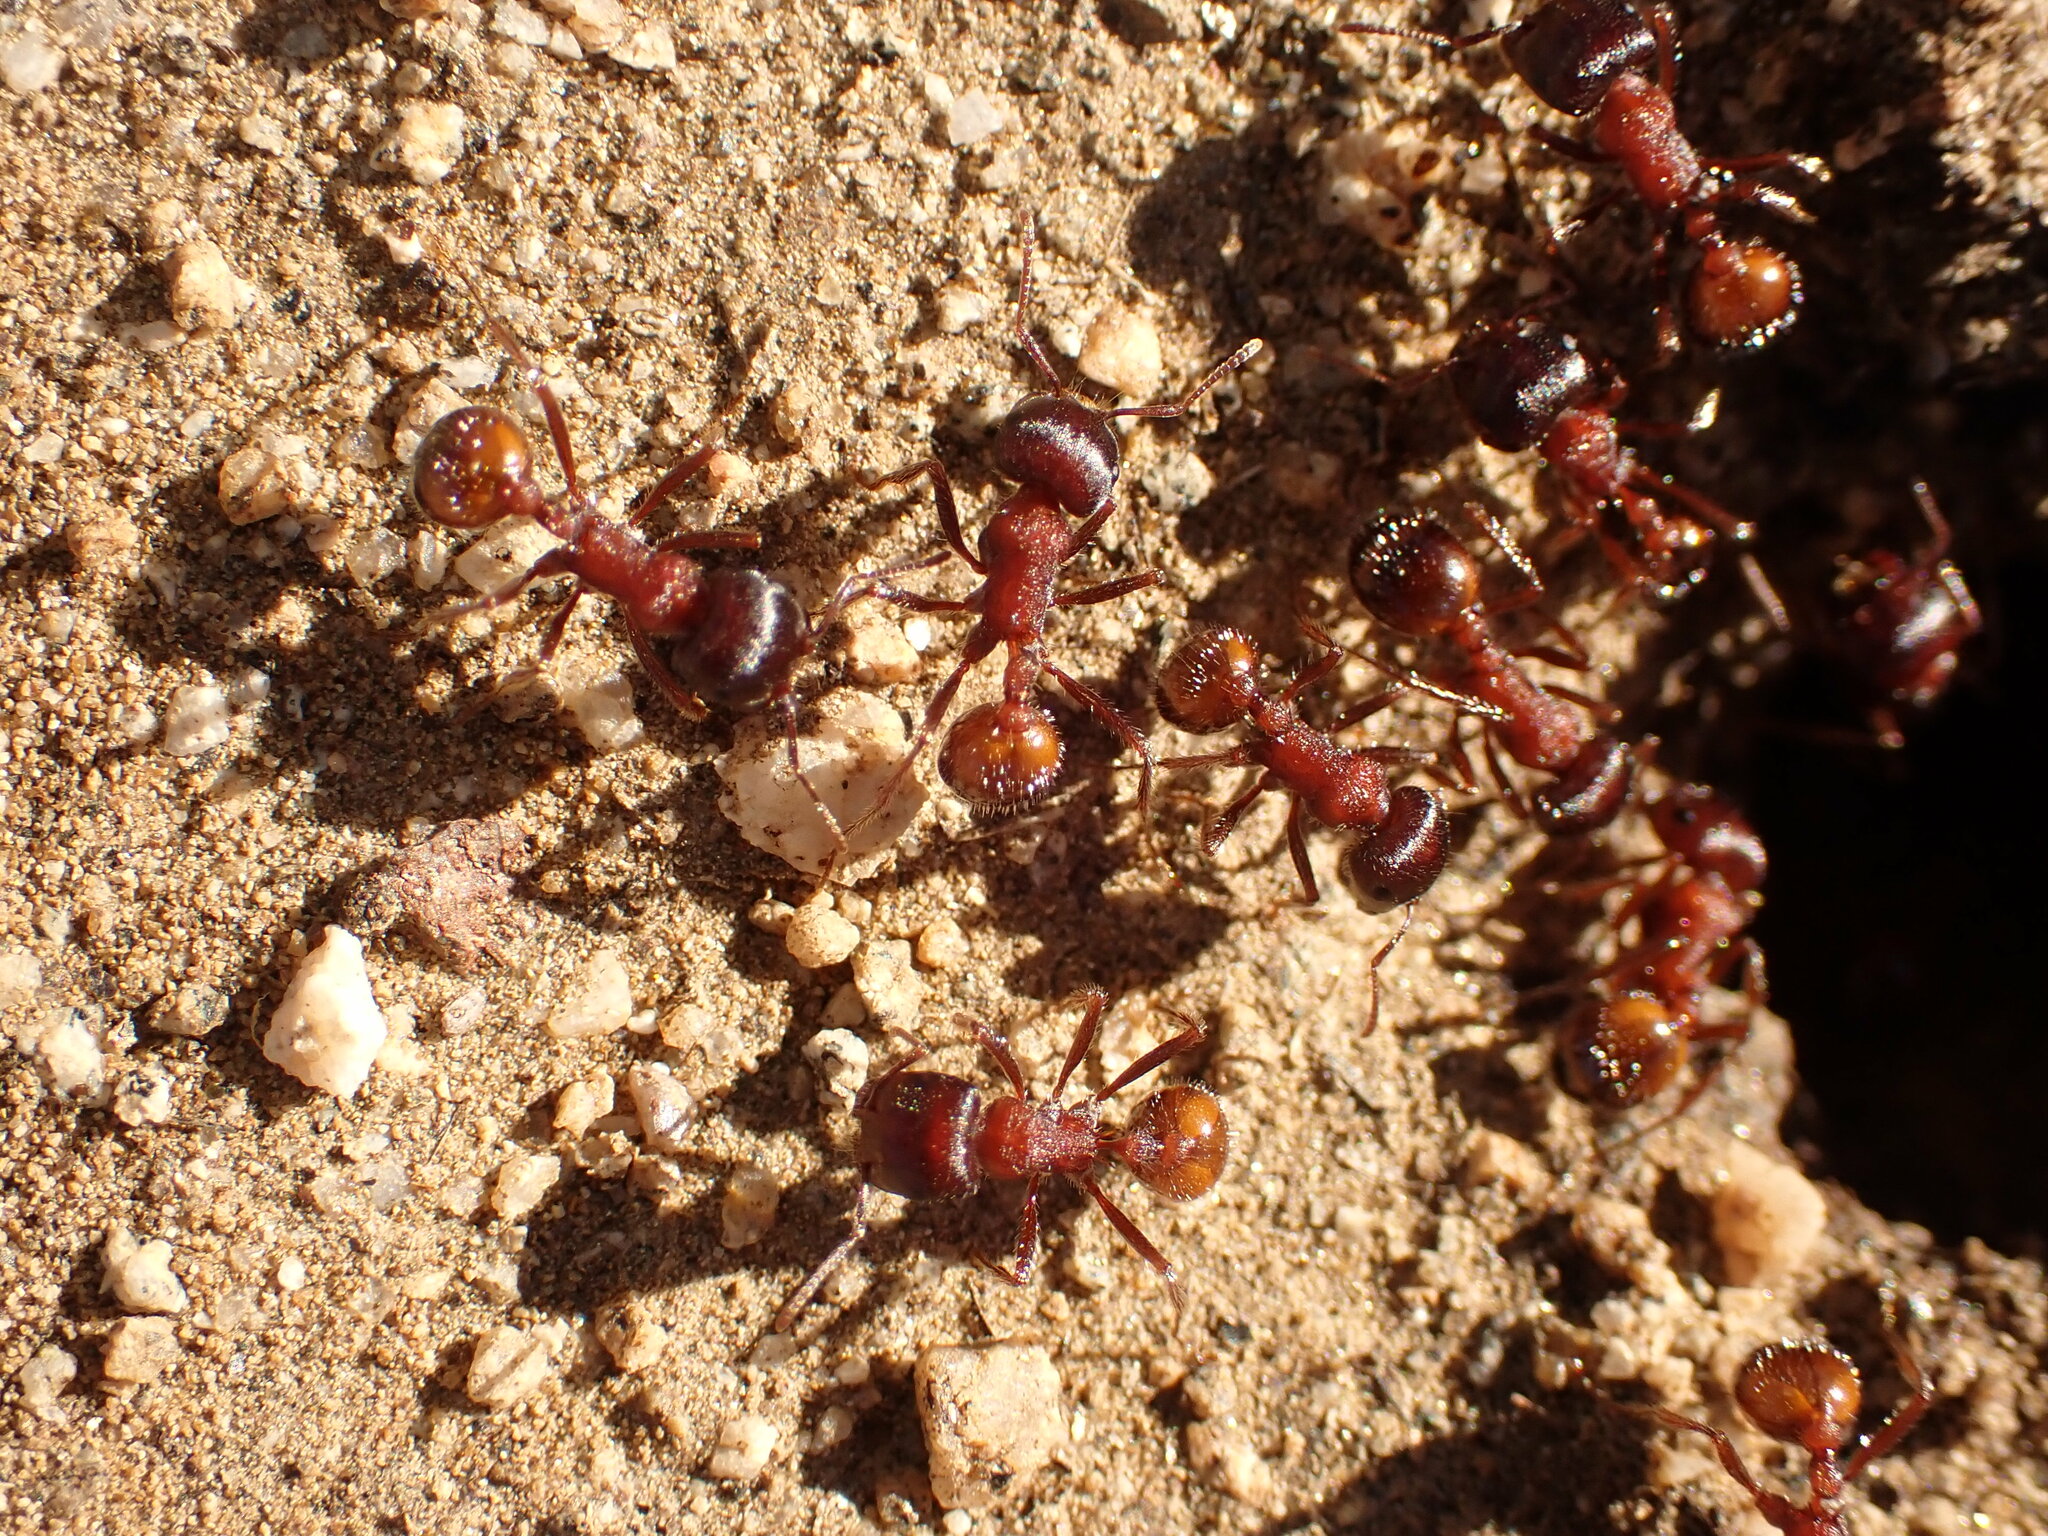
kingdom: Animalia
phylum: Arthropoda
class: Insecta
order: Hymenoptera
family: Formicidae
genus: Pogonomyrmex
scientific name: Pogonomyrmex rugosus
